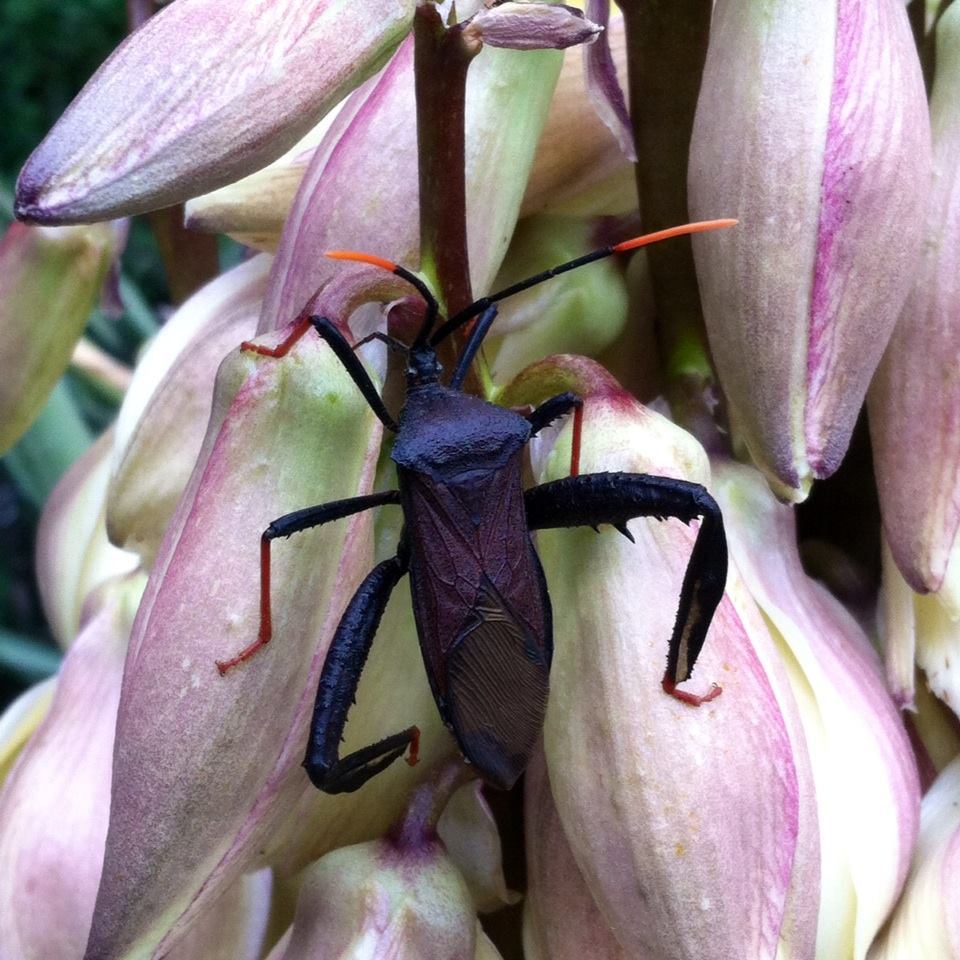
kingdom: Animalia
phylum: Arthropoda
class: Insecta
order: Hemiptera
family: Coreidae
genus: Acanthocephala
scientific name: Acanthocephala thomasi
